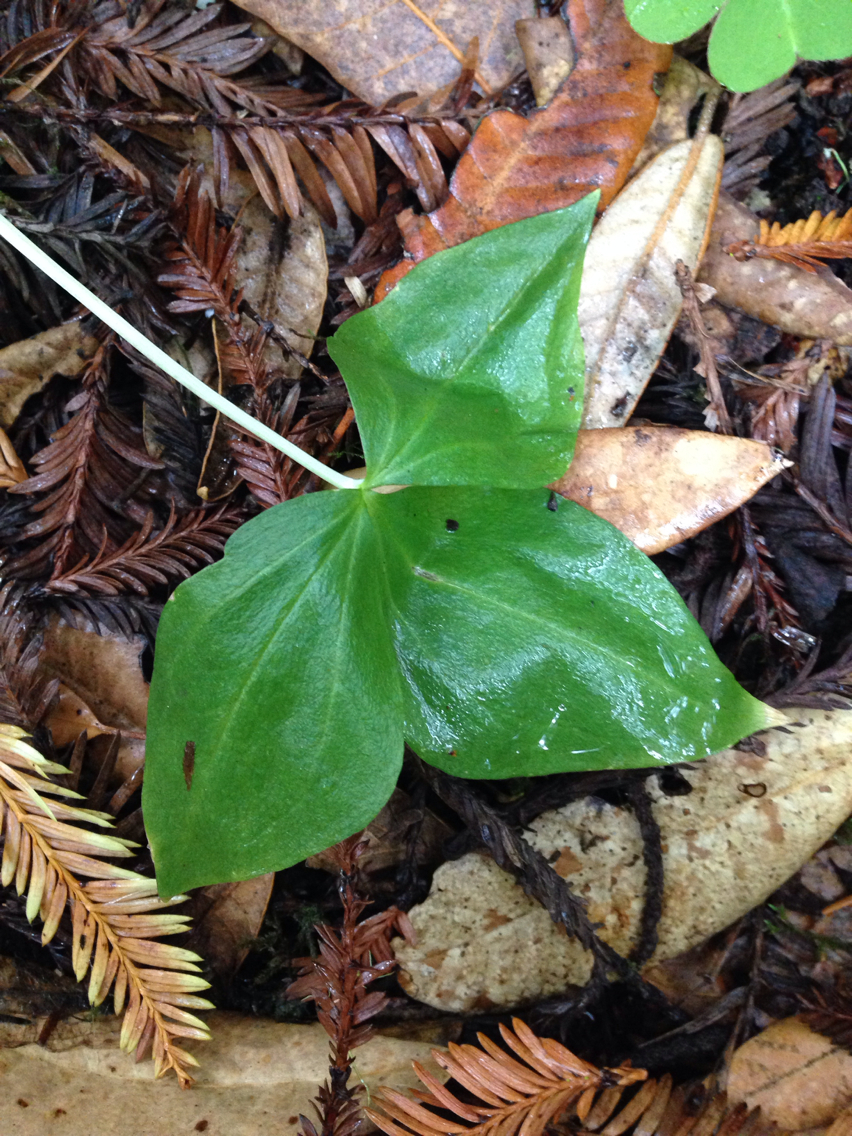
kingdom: Plantae
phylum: Tracheophyta
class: Liliopsida
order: Liliales
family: Melanthiaceae
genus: Trillium
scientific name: Trillium ovatum
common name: Pacific trillium
